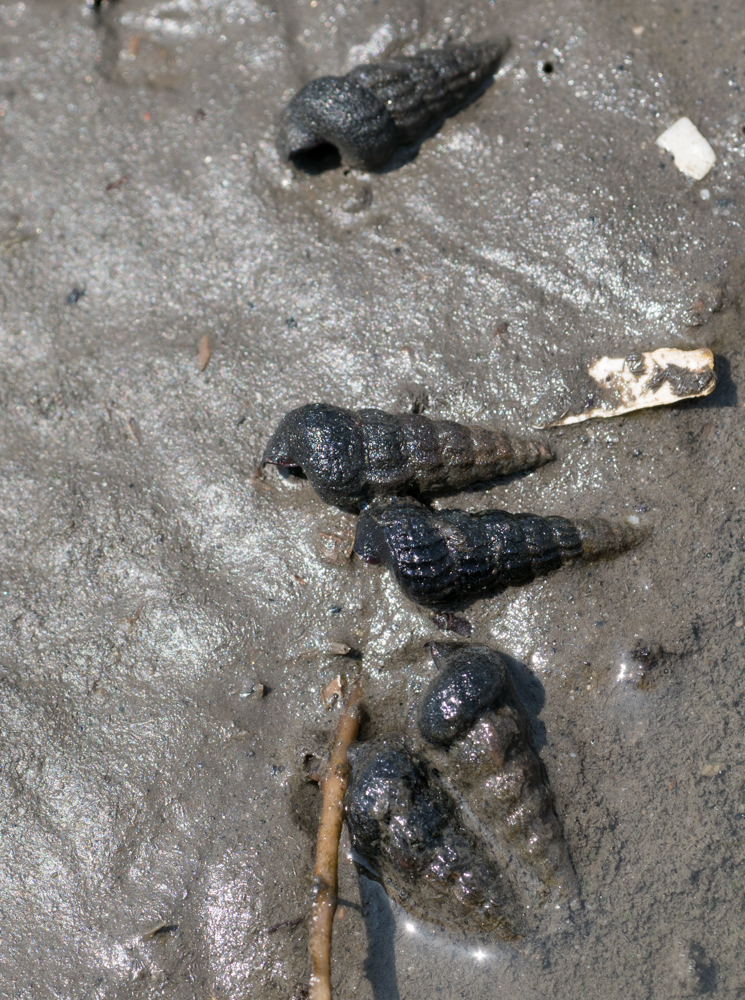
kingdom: Animalia
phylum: Mollusca
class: Gastropoda
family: Potamididae
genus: Cerithideopsis
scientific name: Cerithideopsis californica
